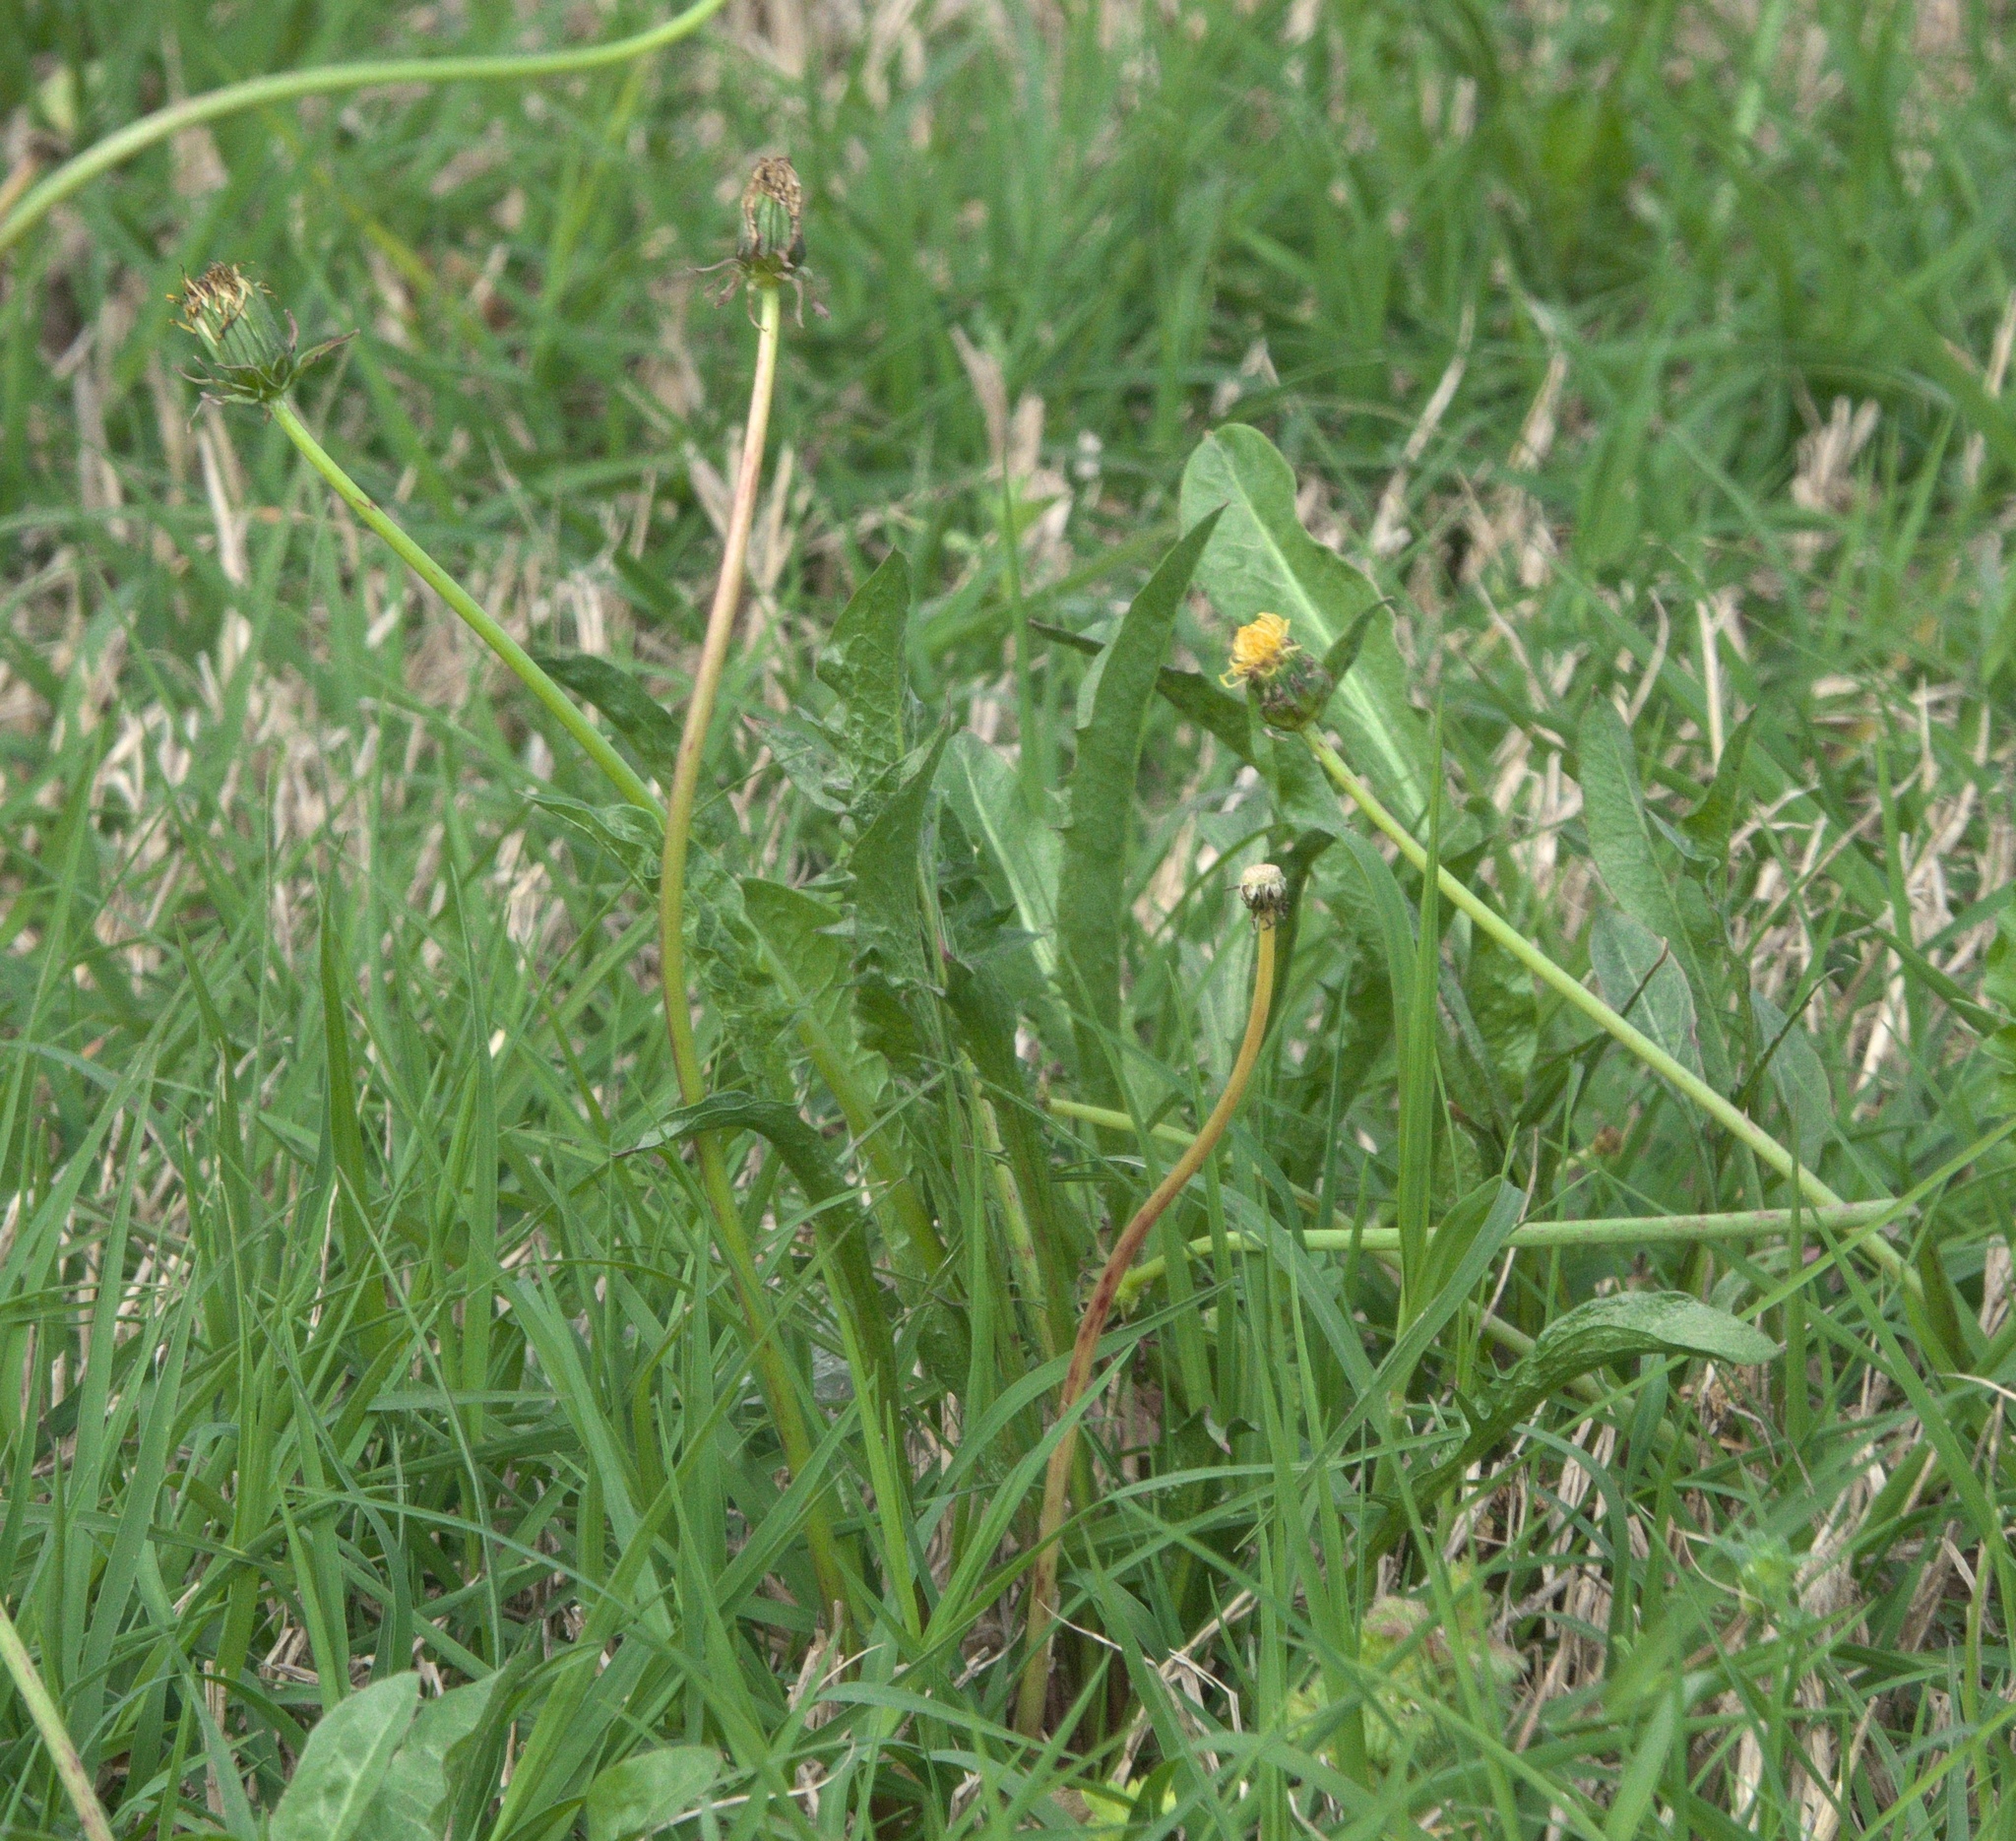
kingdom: Plantae
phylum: Tracheophyta
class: Magnoliopsida
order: Asterales
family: Asteraceae
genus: Taraxacum
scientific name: Taraxacum officinale
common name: Common dandelion
